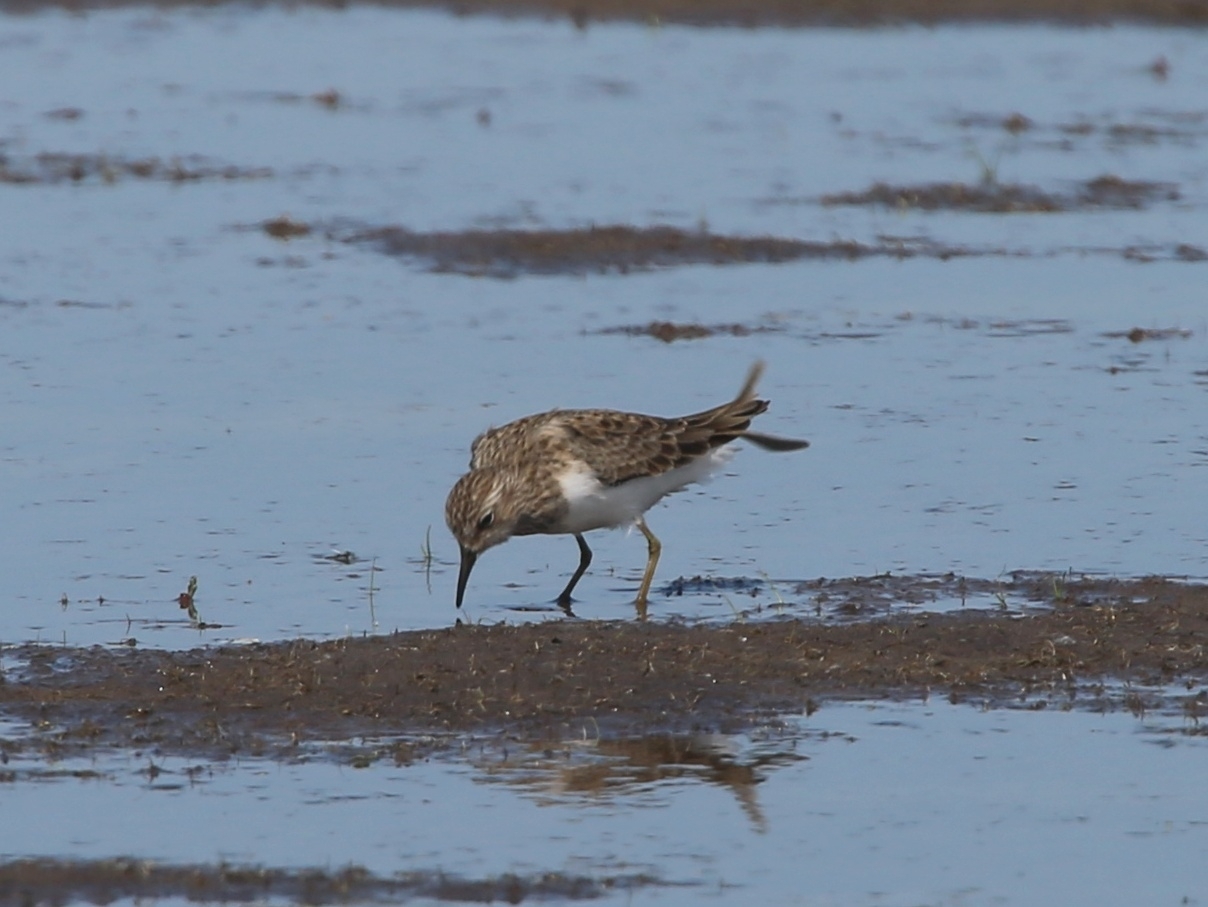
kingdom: Animalia
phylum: Chordata
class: Aves
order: Charadriiformes
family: Scolopacidae
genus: Calidris
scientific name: Calidris temminckii
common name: Temminck's stint
